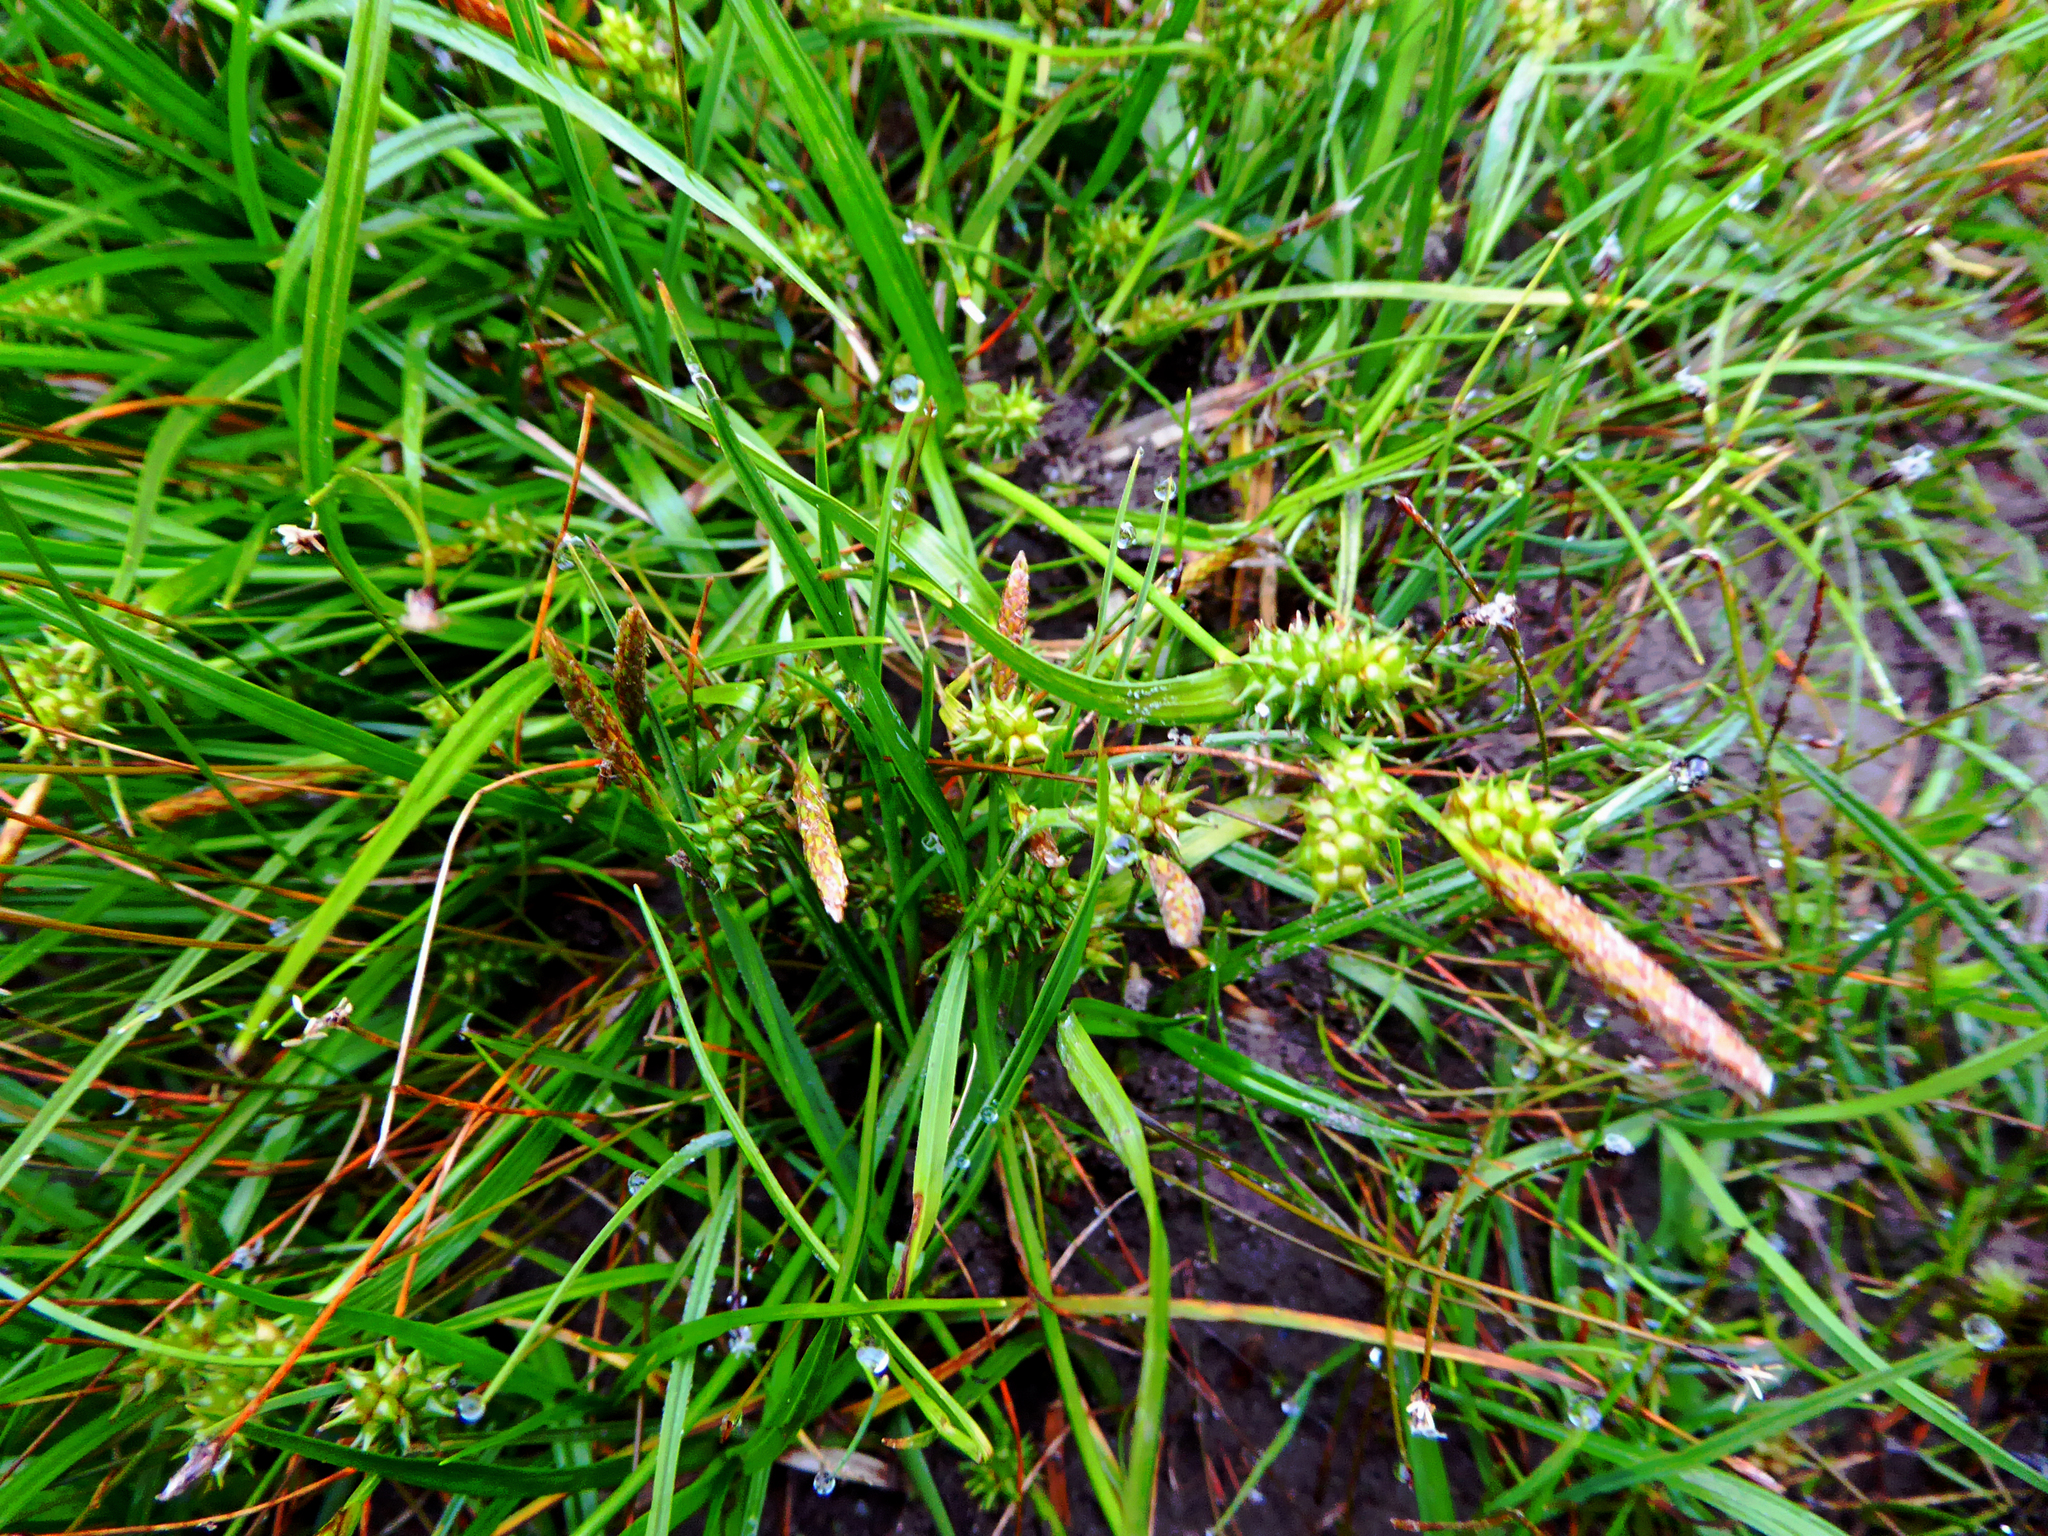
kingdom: Plantae
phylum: Tracheophyta
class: Liliopsida
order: Poales
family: Cyperaceae
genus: Carex
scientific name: Carex demissa
